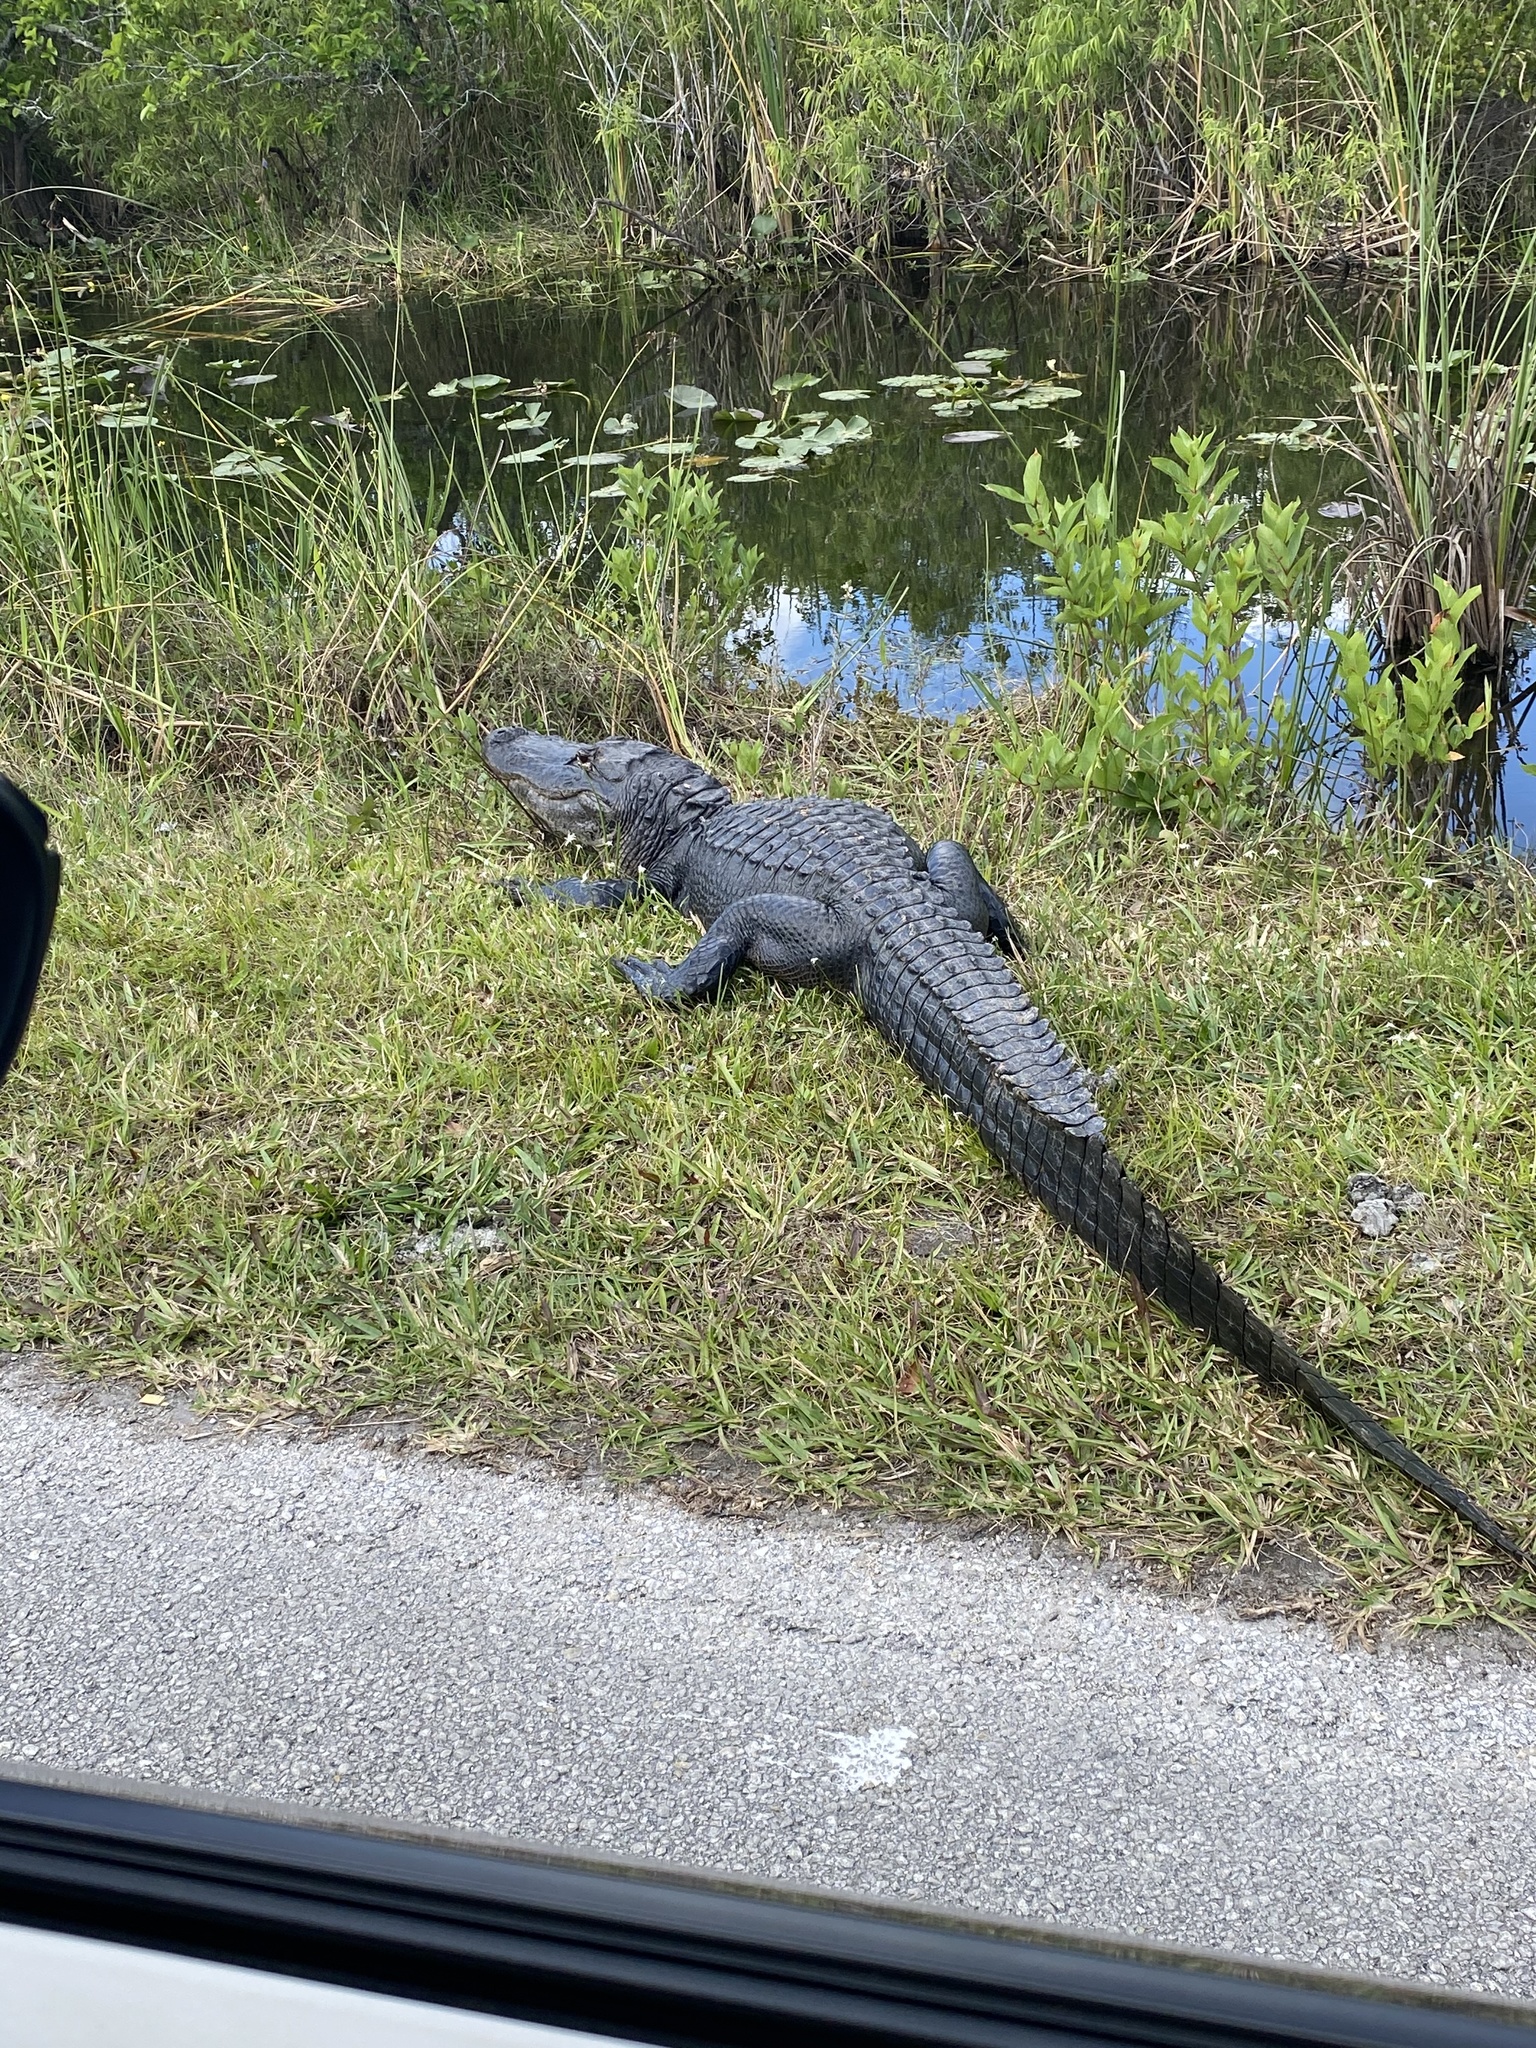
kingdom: Animalia
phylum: Chordata
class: Crocodylia
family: Alligatoridae
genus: Alligator
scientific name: Alligator mississippiensis
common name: American alligator
